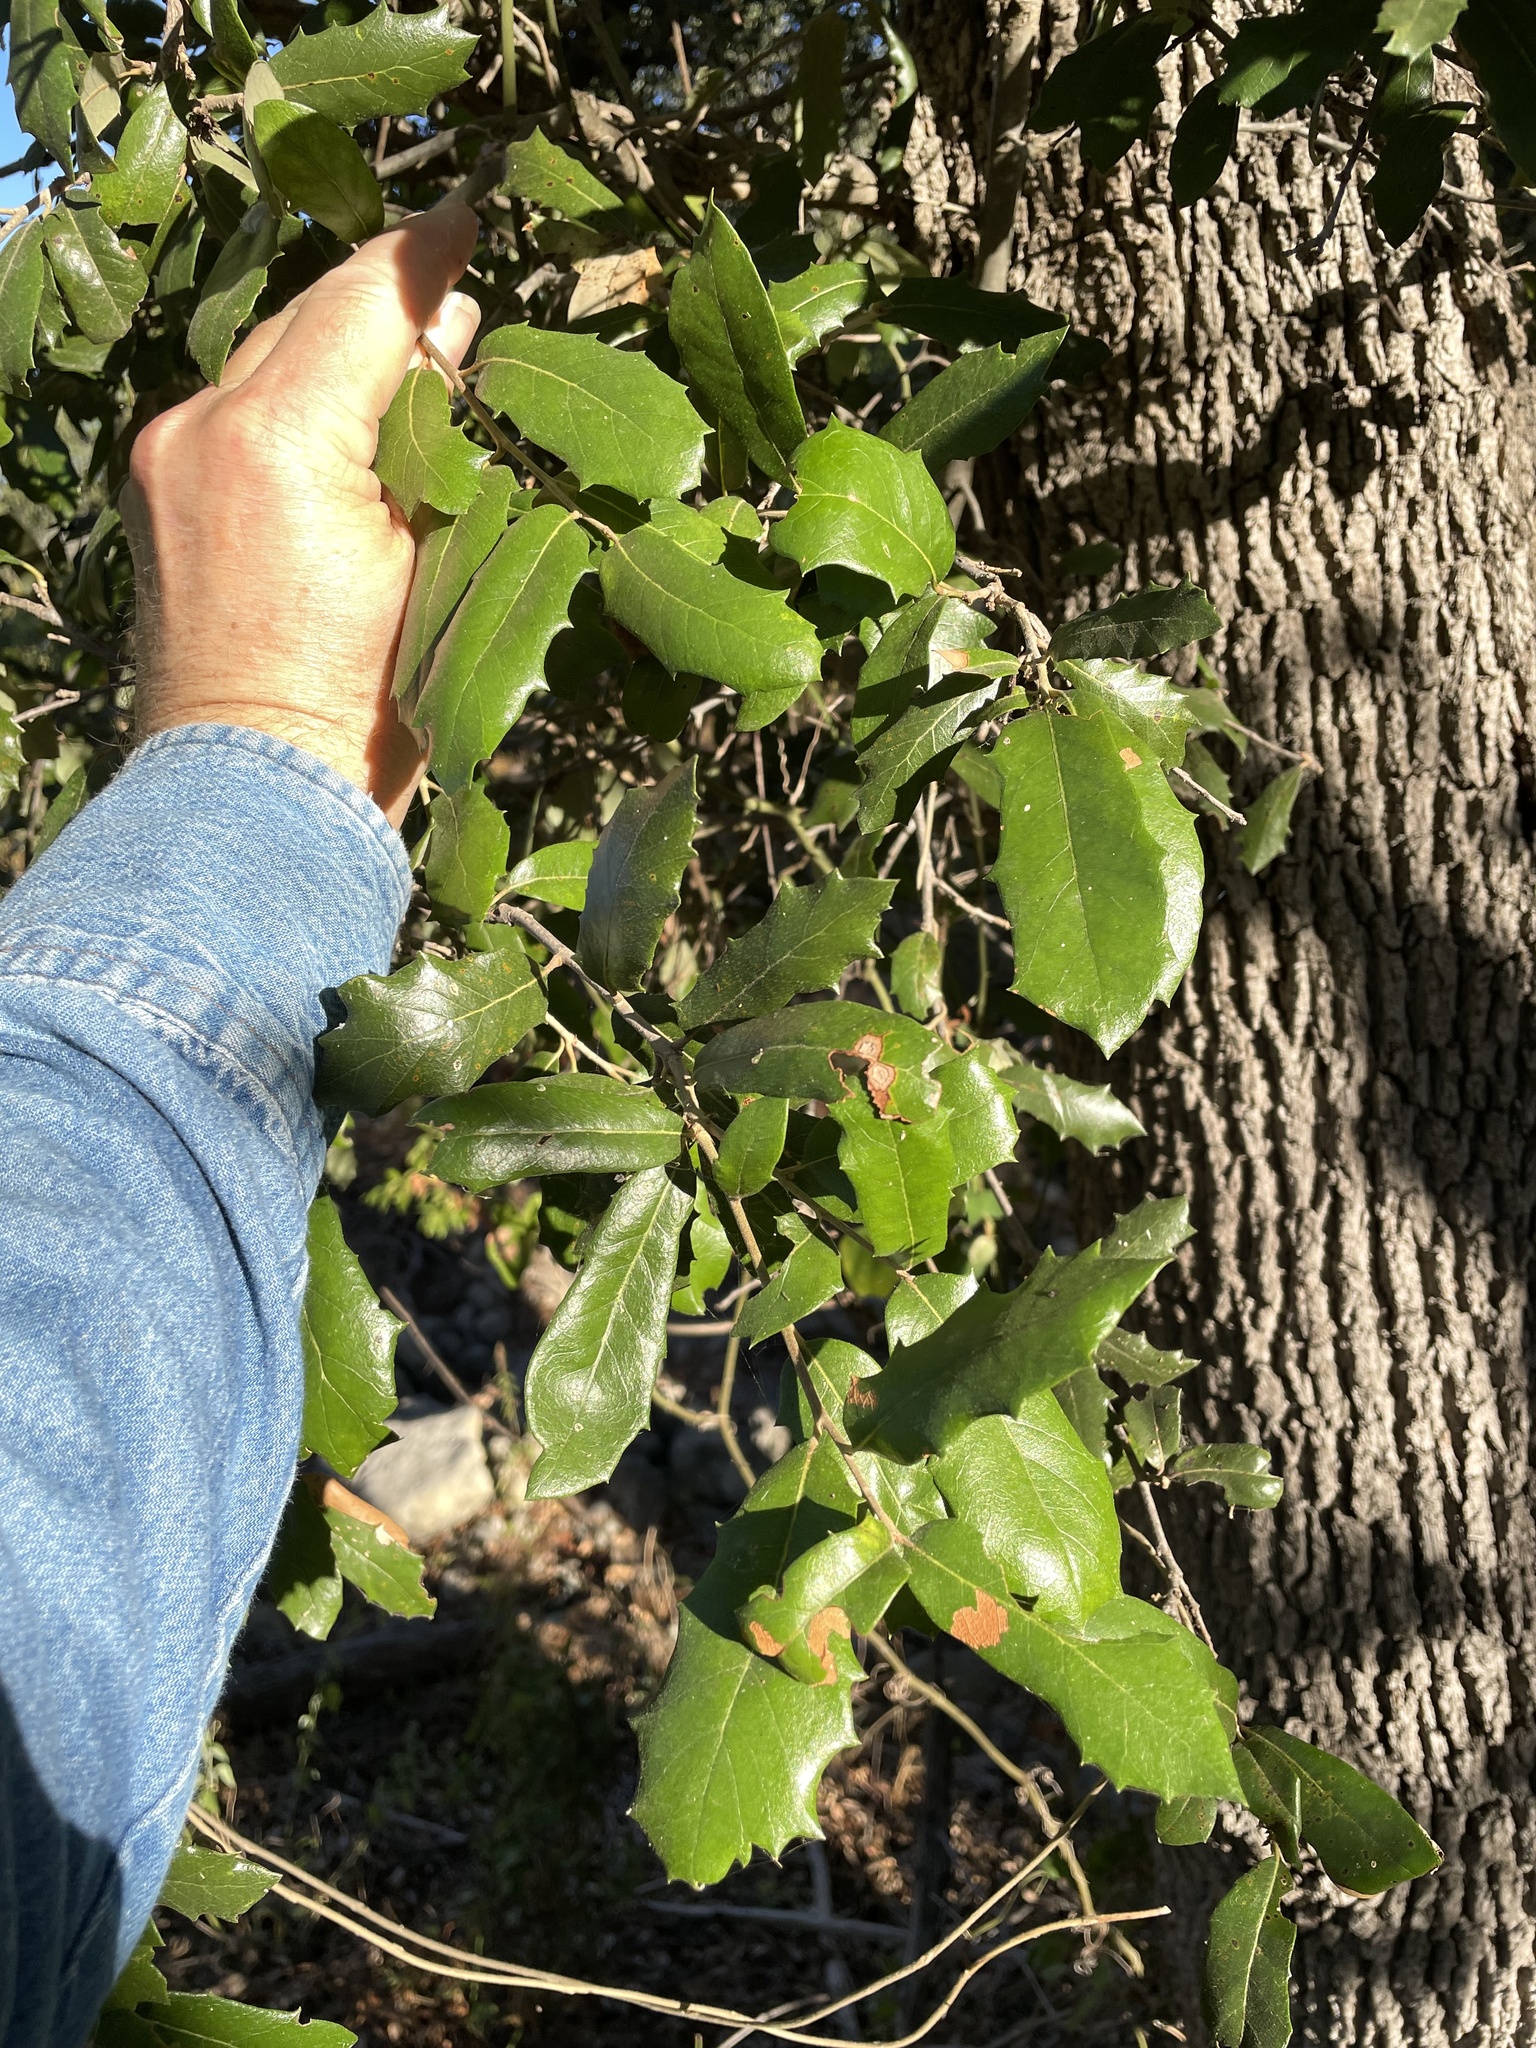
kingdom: Plantae
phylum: Tracheophyta
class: Magnoliopsida
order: Fagales
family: Fagaceae
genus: Quercus
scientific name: Quercus fusiformis
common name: Texas live oak
